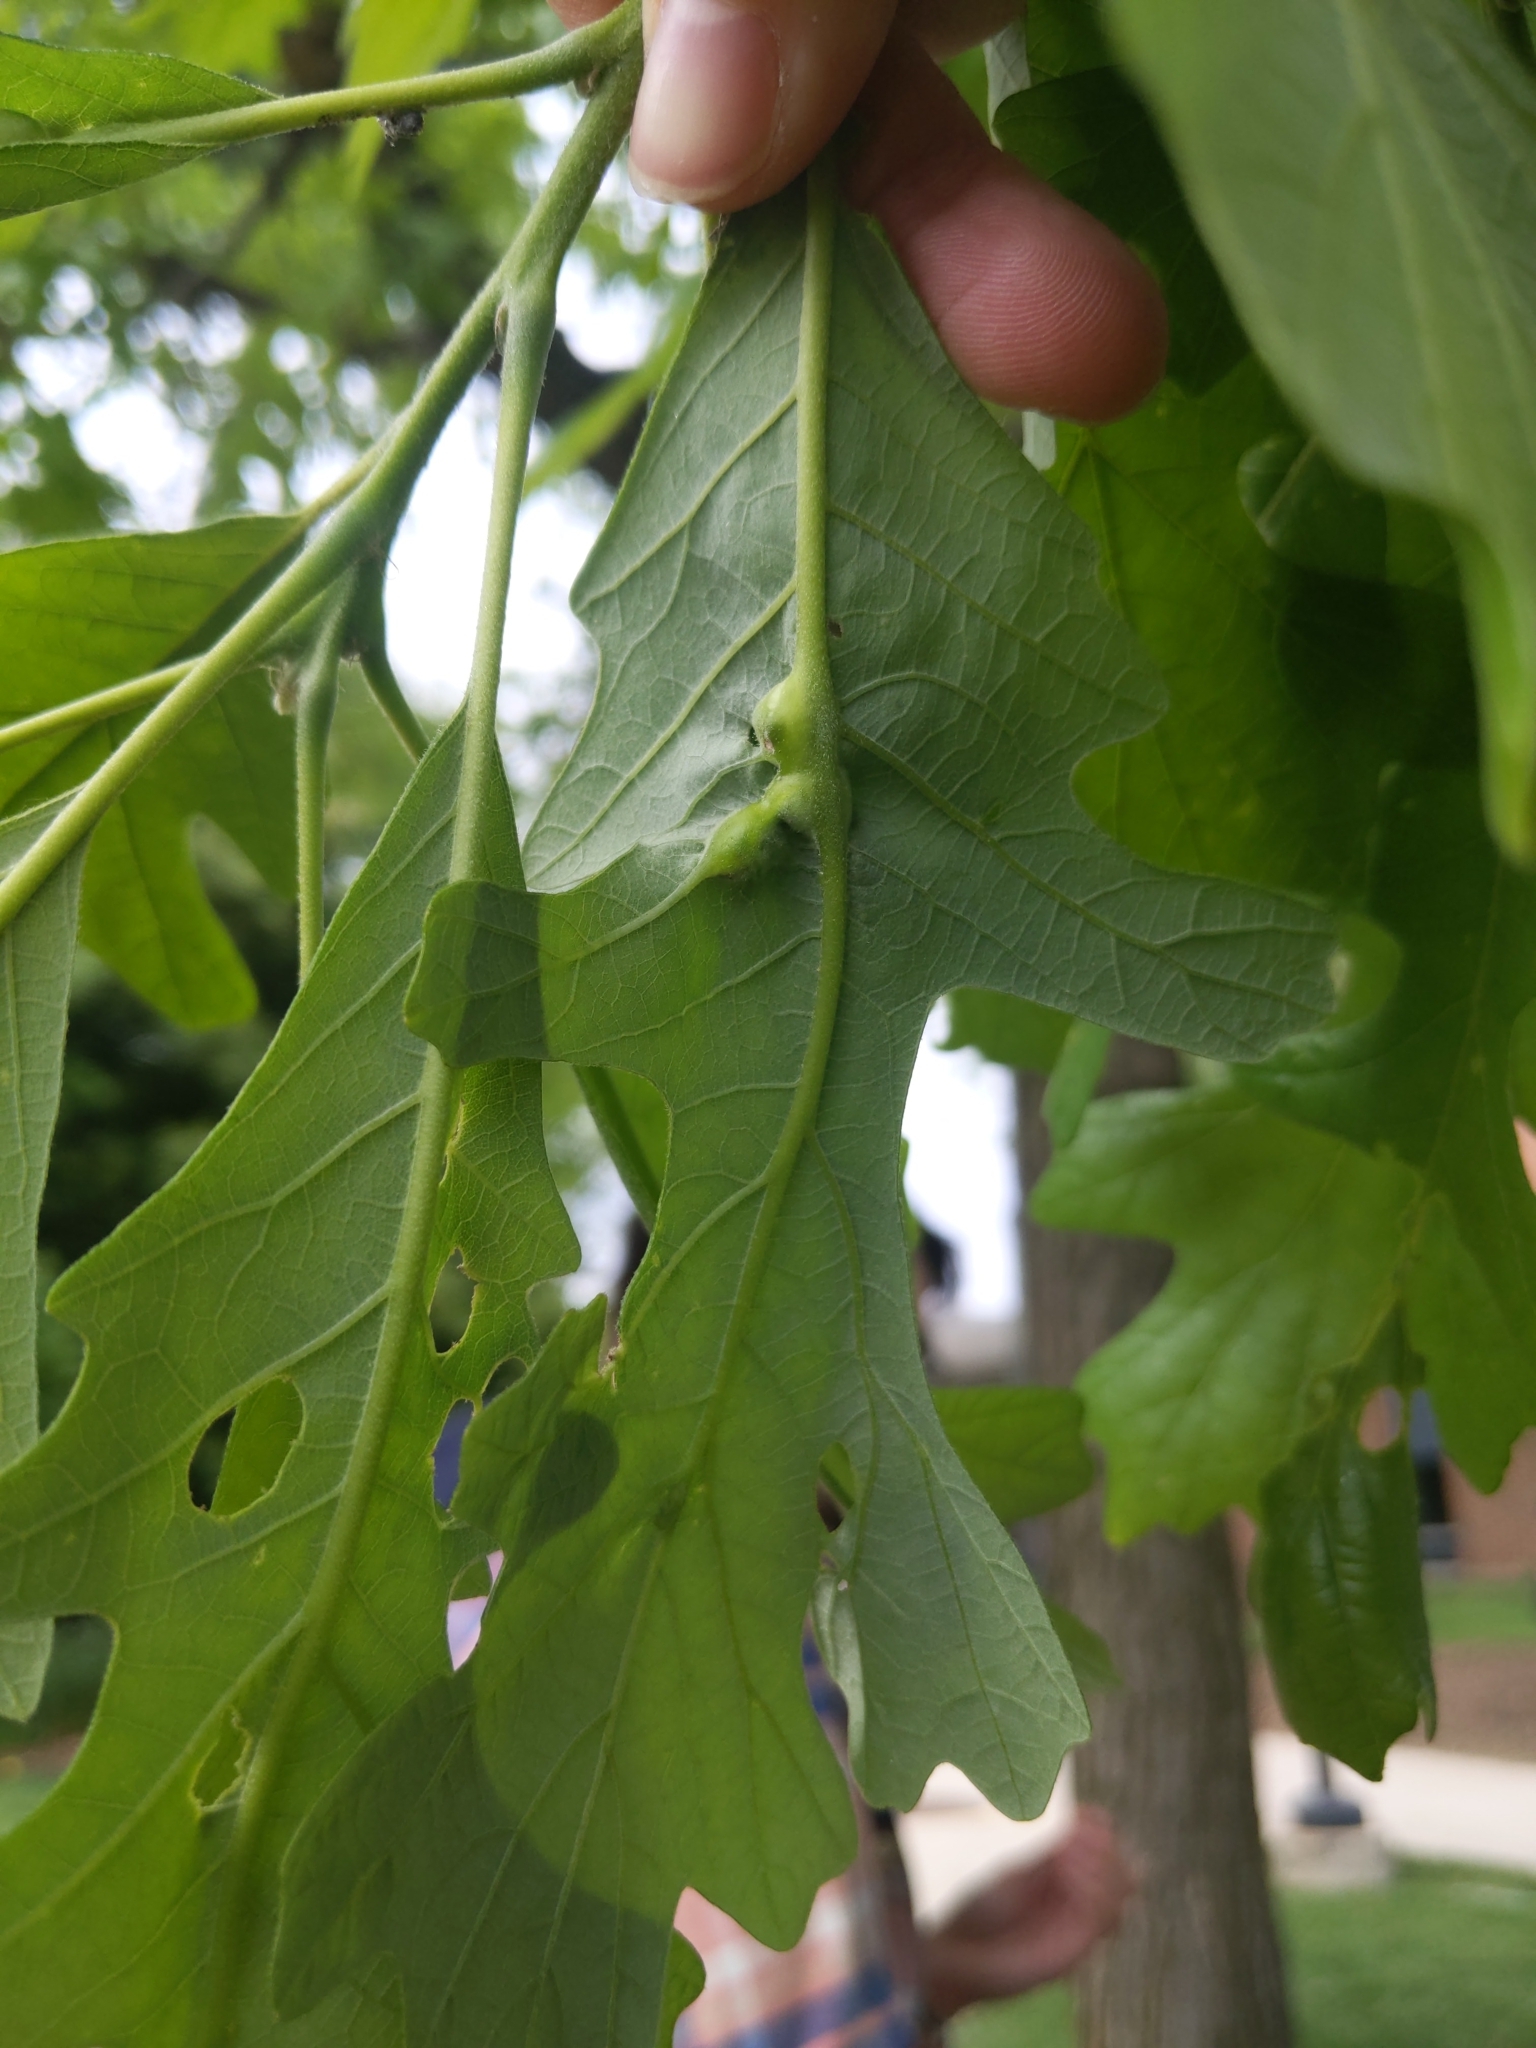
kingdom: Animalia
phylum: Arthropoda
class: Insecta
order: Hymenoptera
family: Cynipidae
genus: Bassettia
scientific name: Bassettia flavipes
